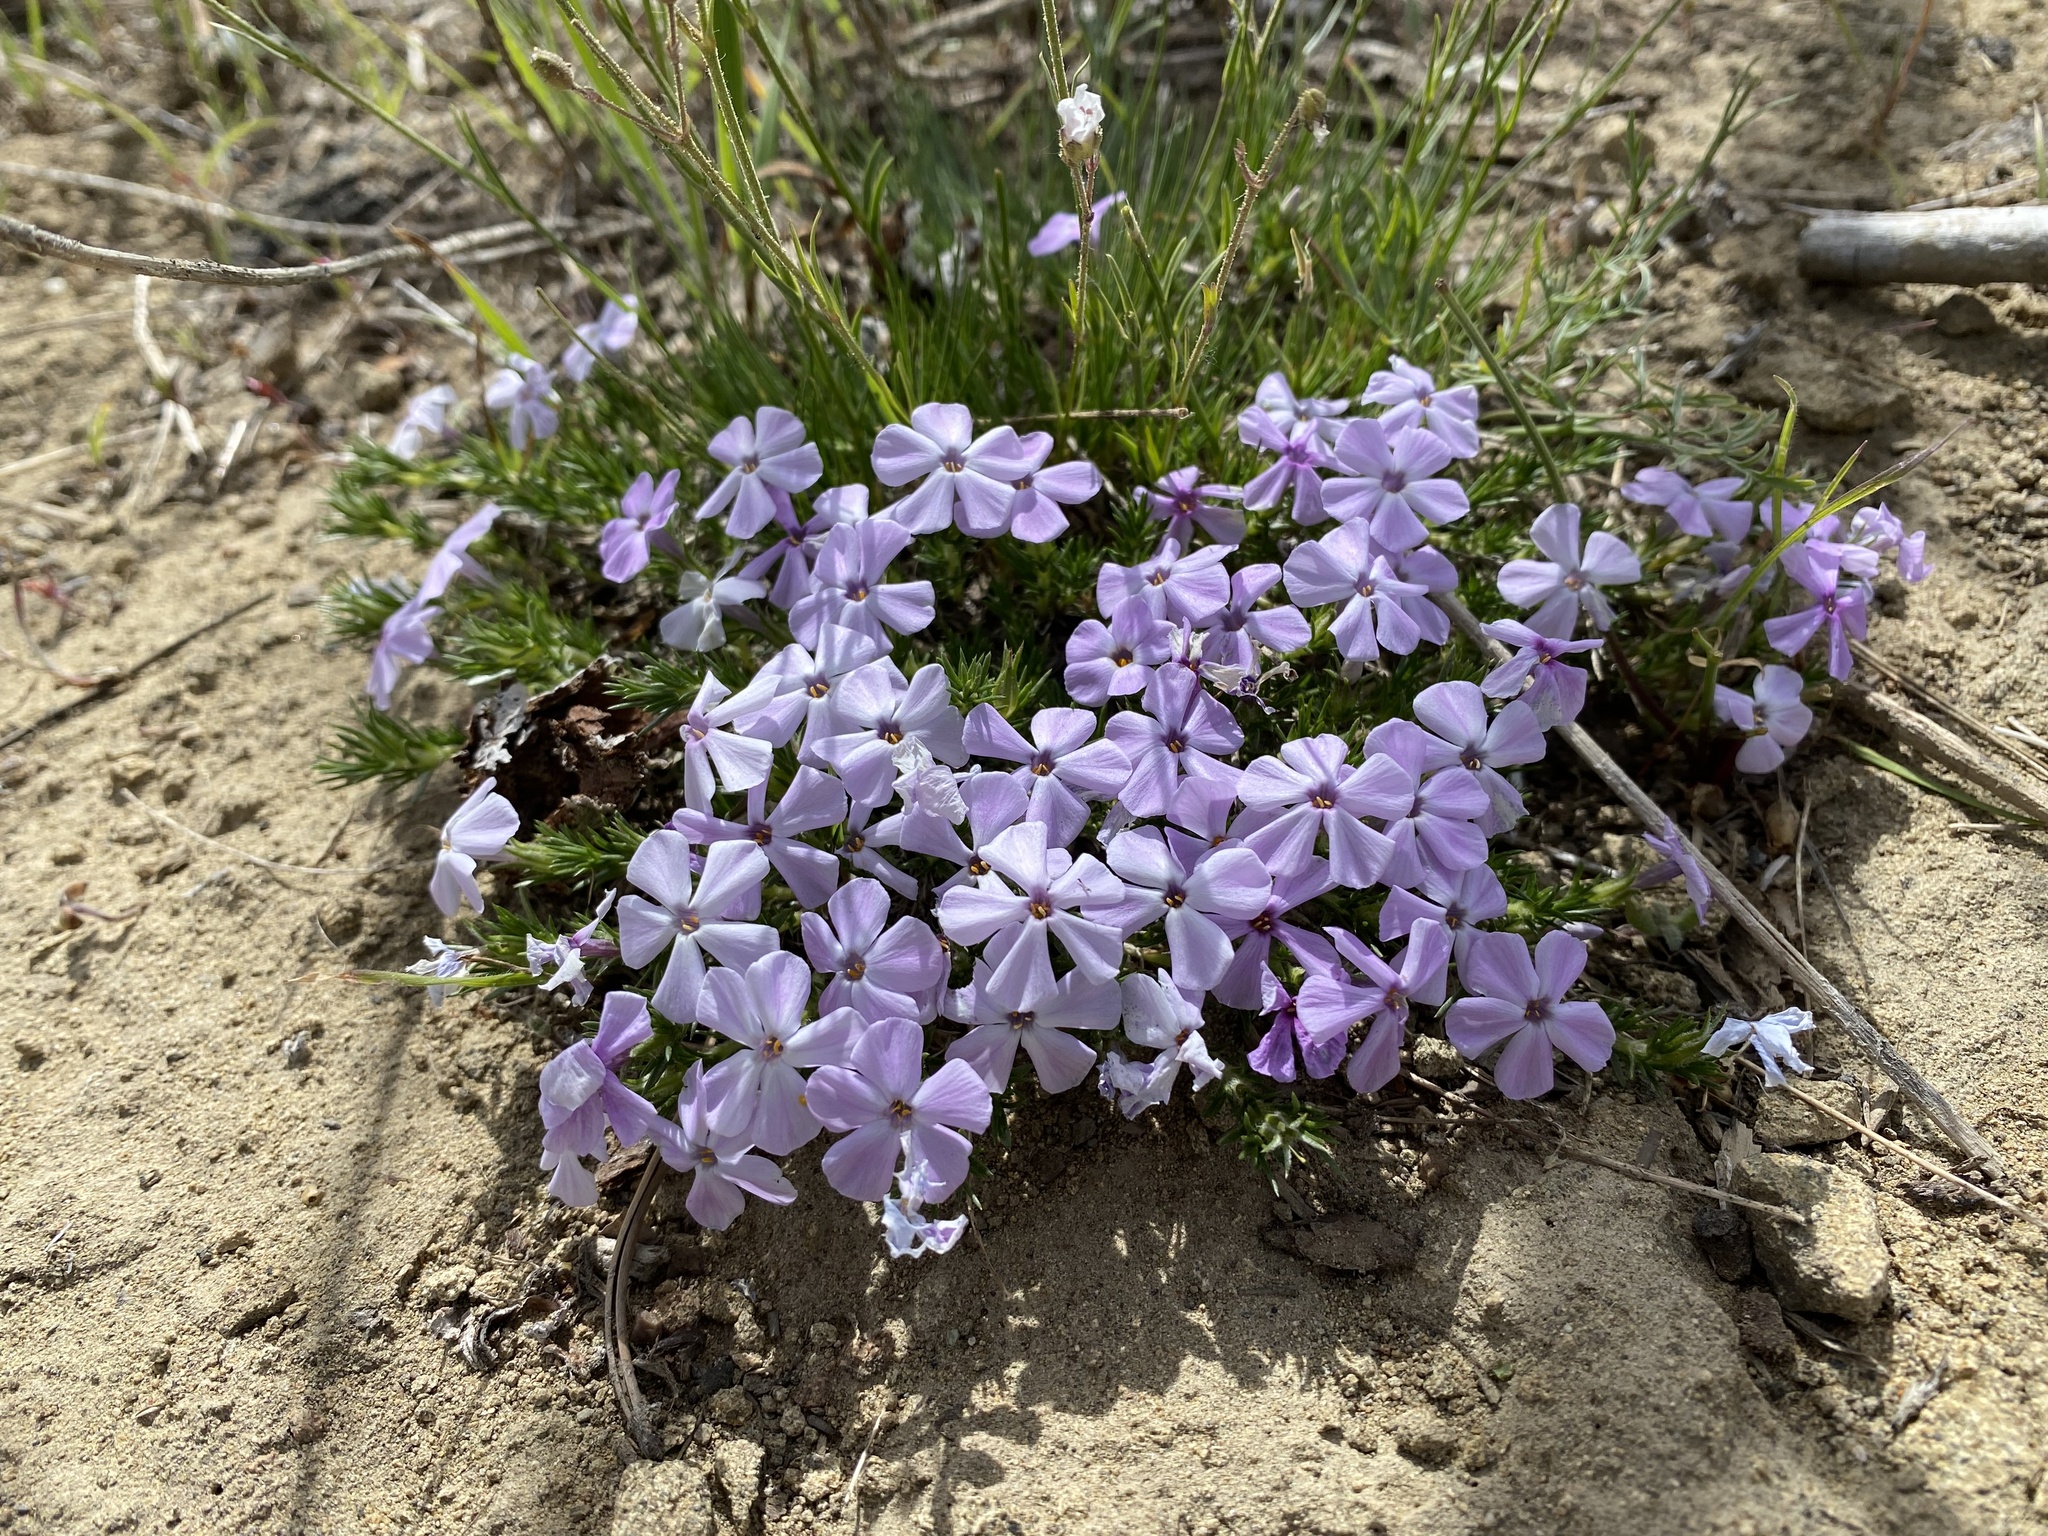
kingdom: Plantae
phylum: Tracheophyta
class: Magnoliopsida
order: Ericales
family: Polemoniaceae
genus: Phlox
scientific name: Phlox diffusa
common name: Mat phlox
